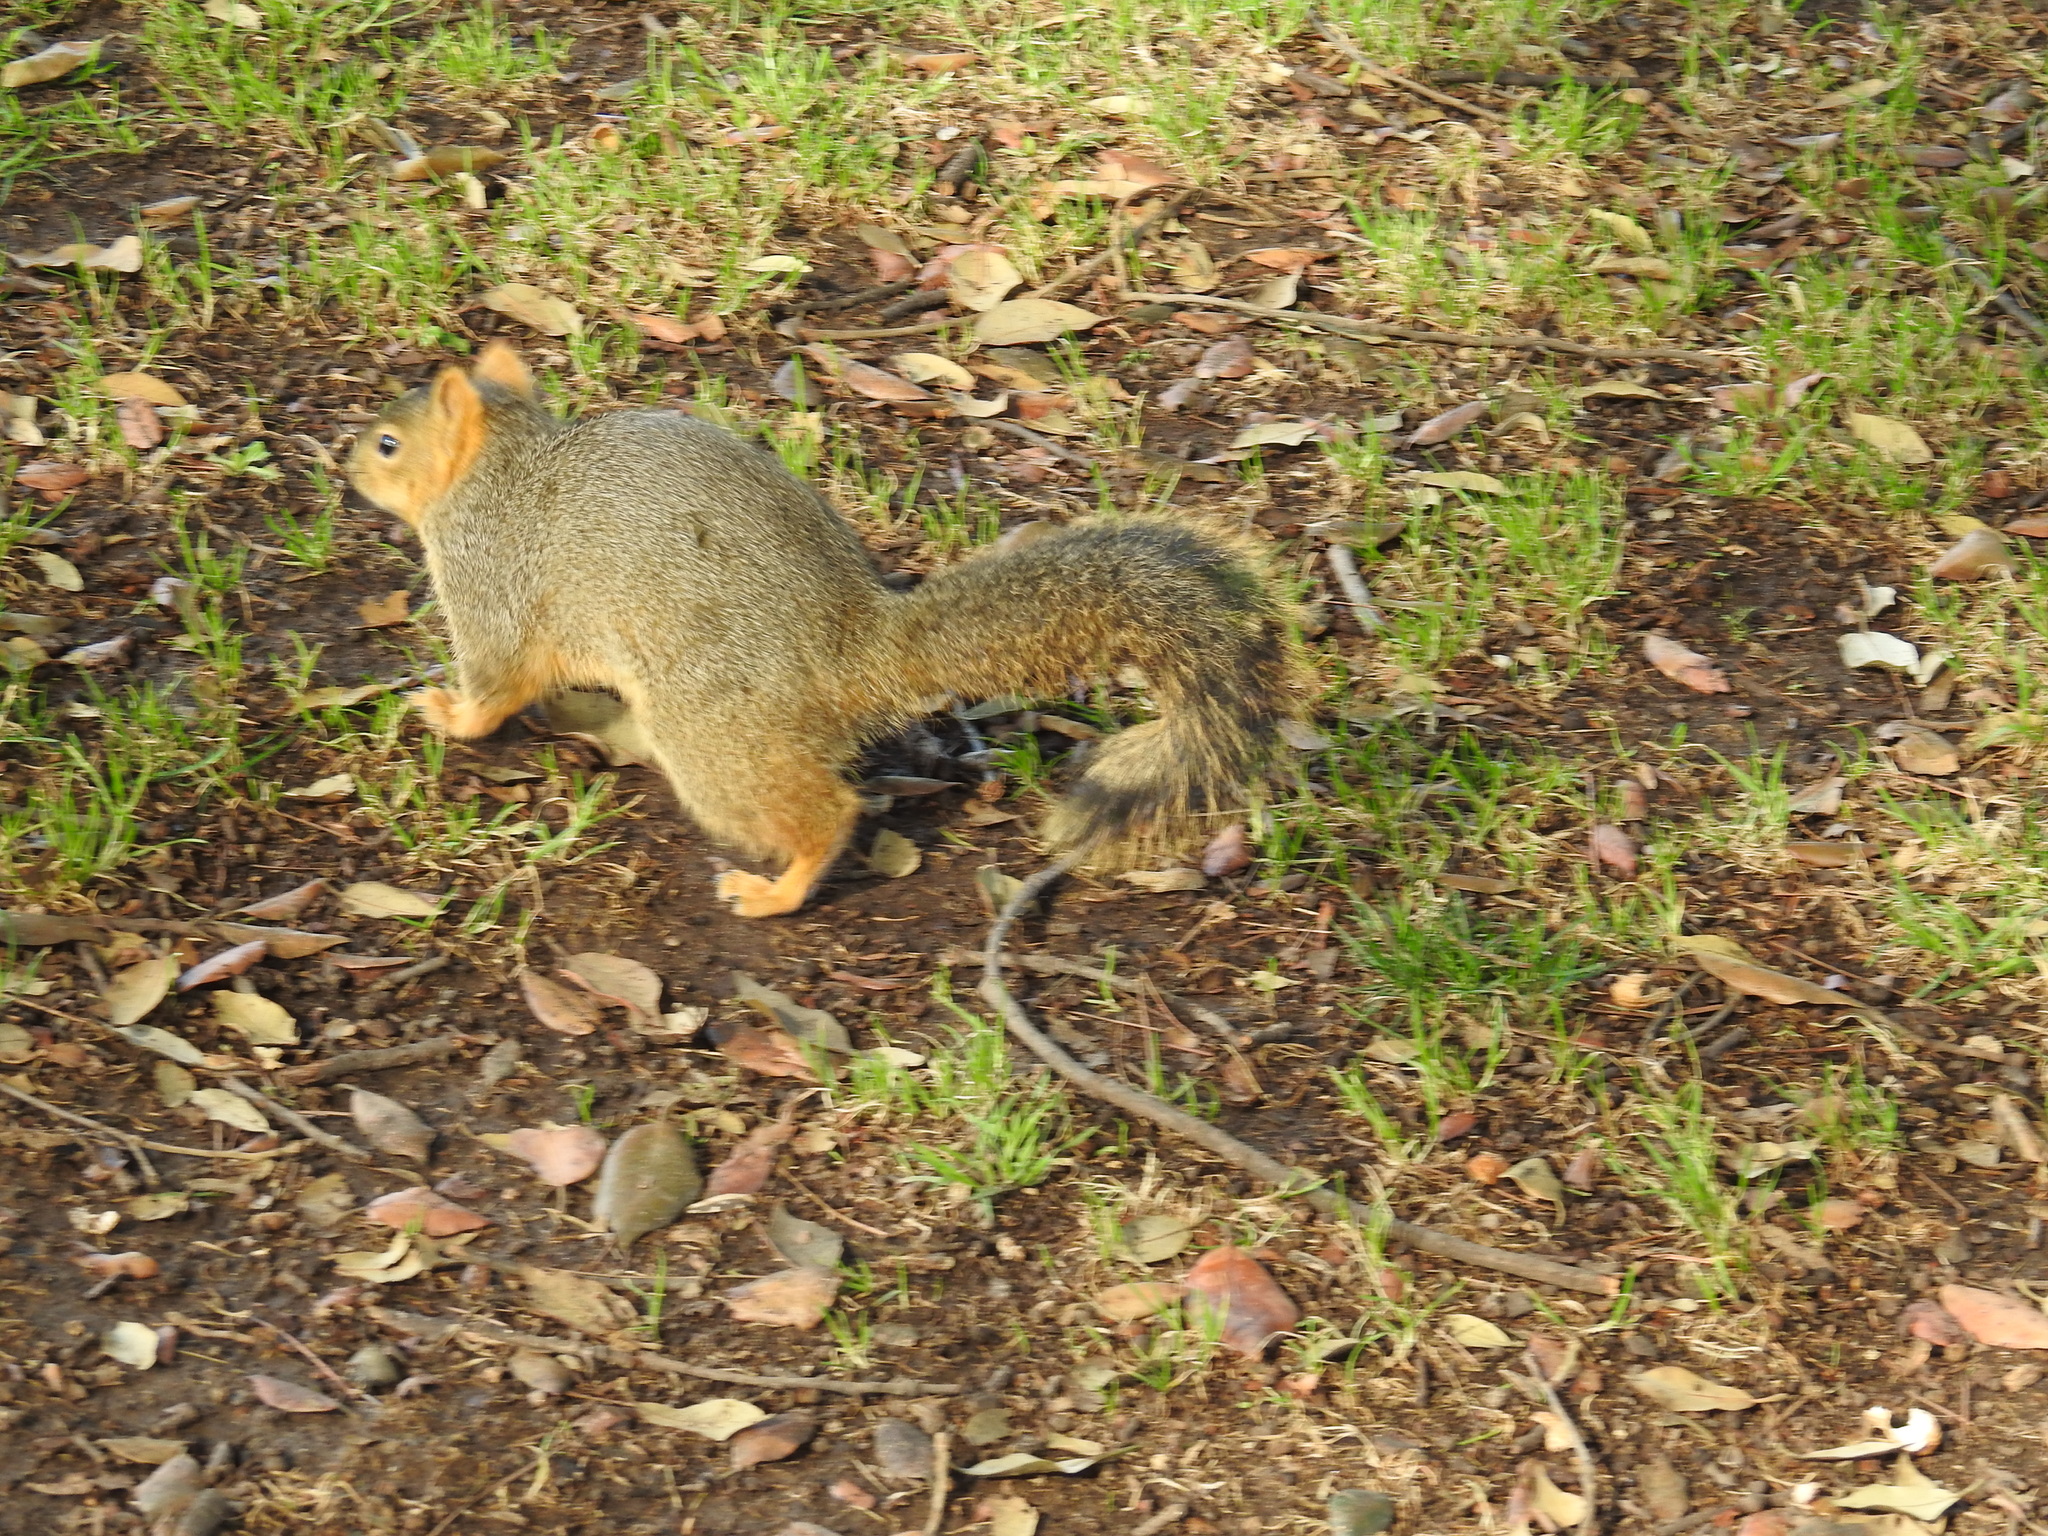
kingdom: Animalia
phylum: Chordata
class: Mammalia
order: Rodentia
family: Sciuridae
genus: Sciurus
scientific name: Sciurus niger
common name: Fox squirrel
